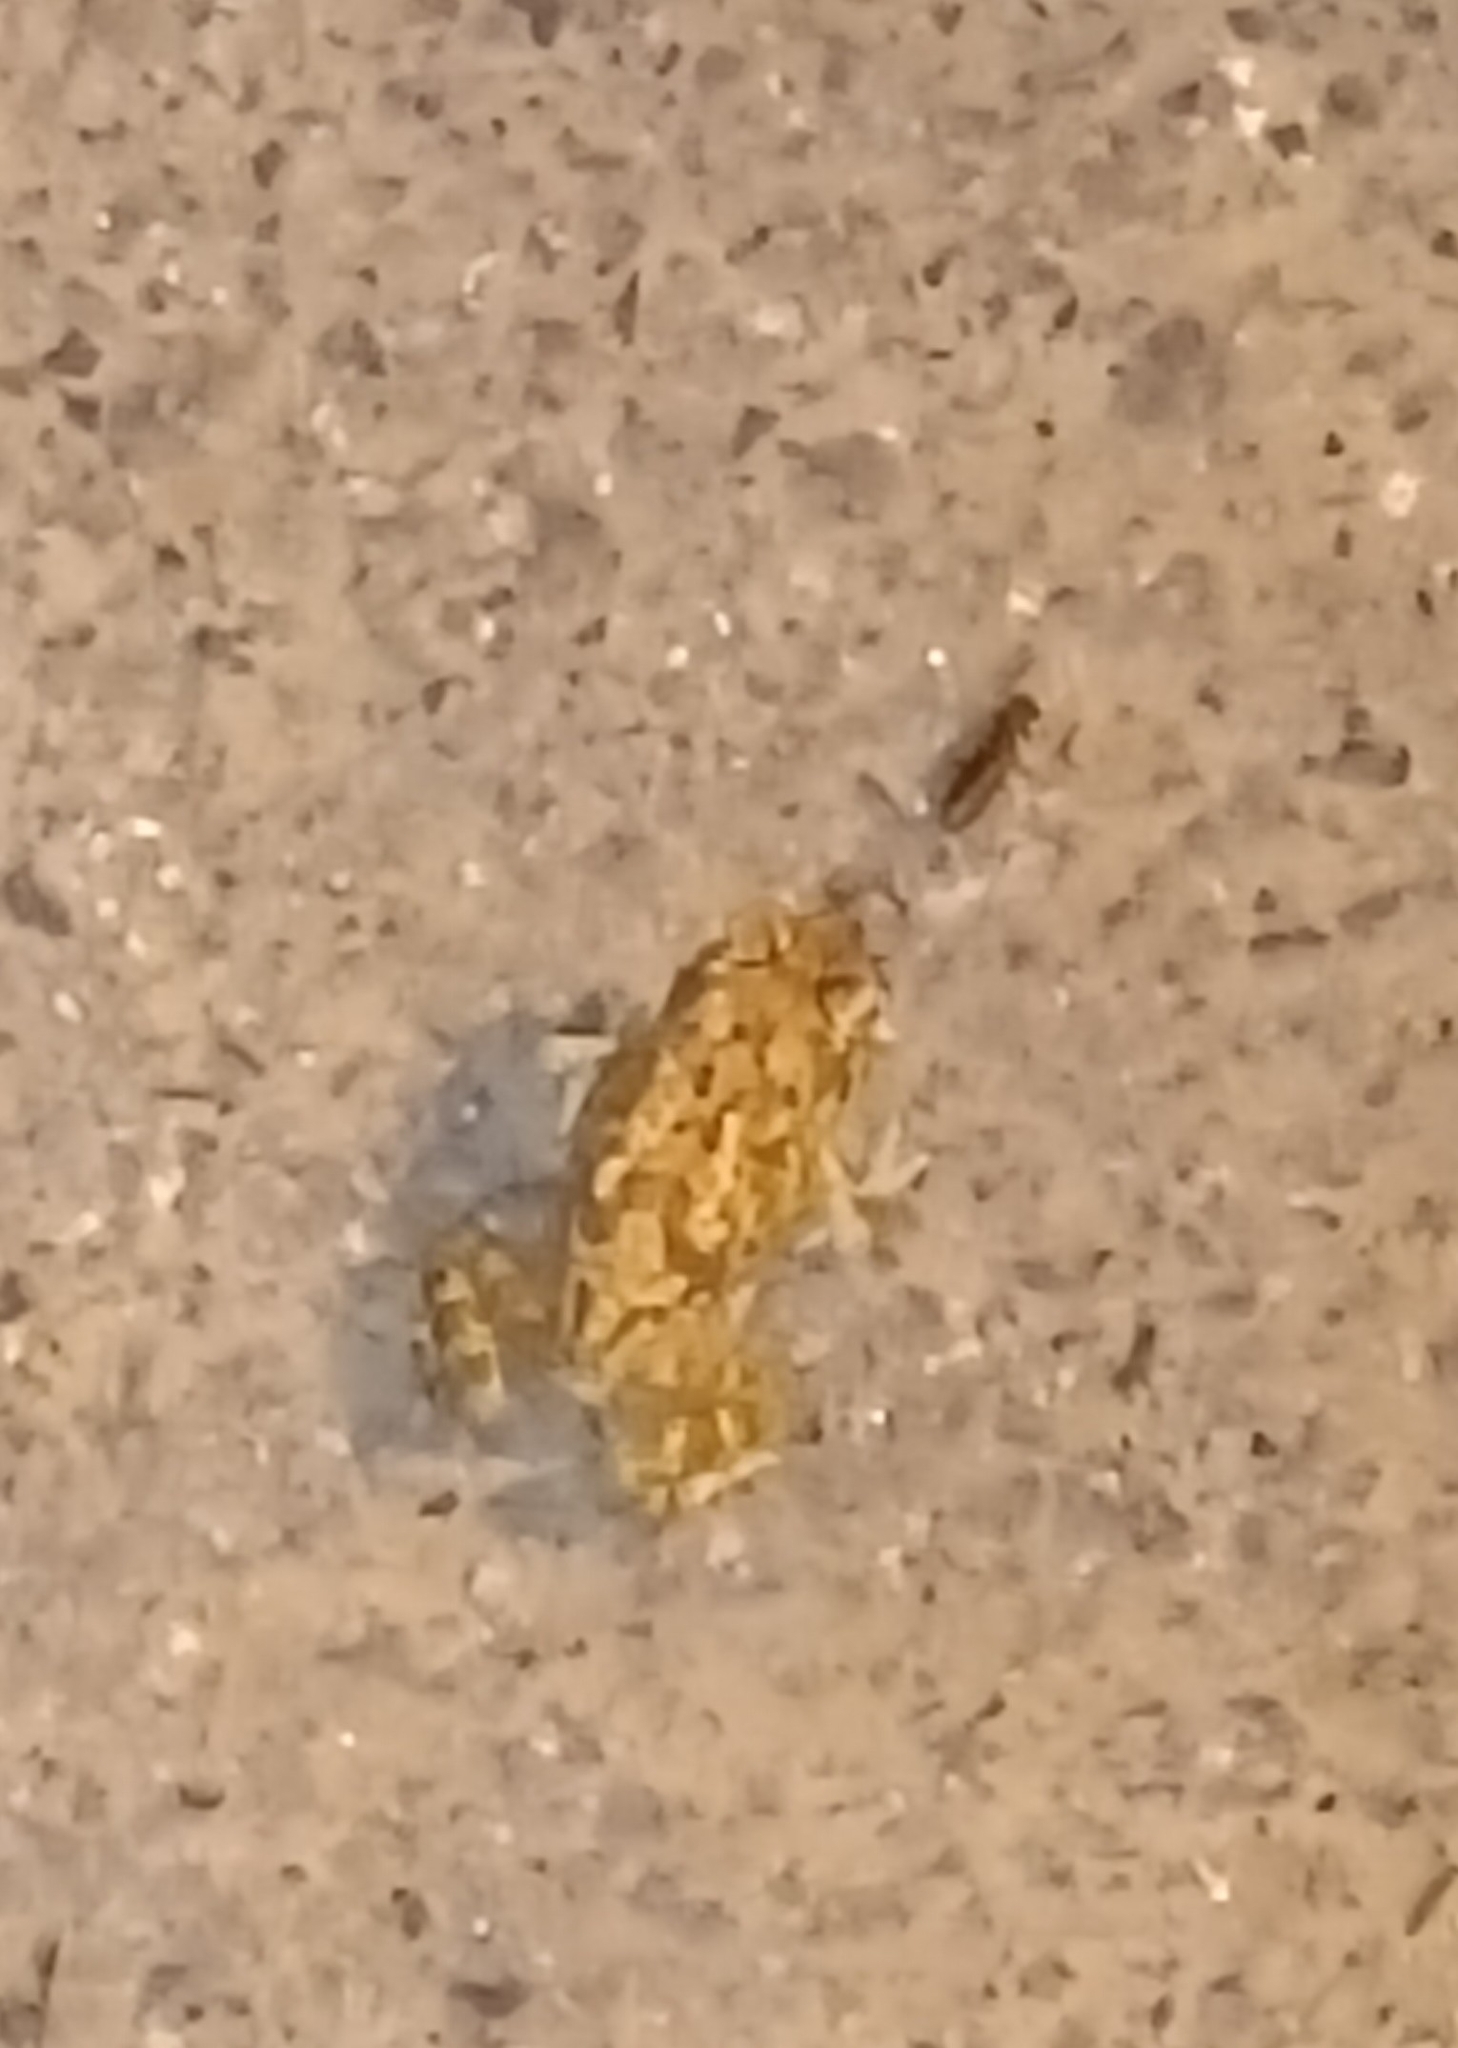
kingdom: Animalia
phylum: Chordata
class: Amphibia
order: Anura
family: Bufonidae
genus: Duttaphrynus
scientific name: Duttaphrynus melanostictus
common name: Common sunda toad
